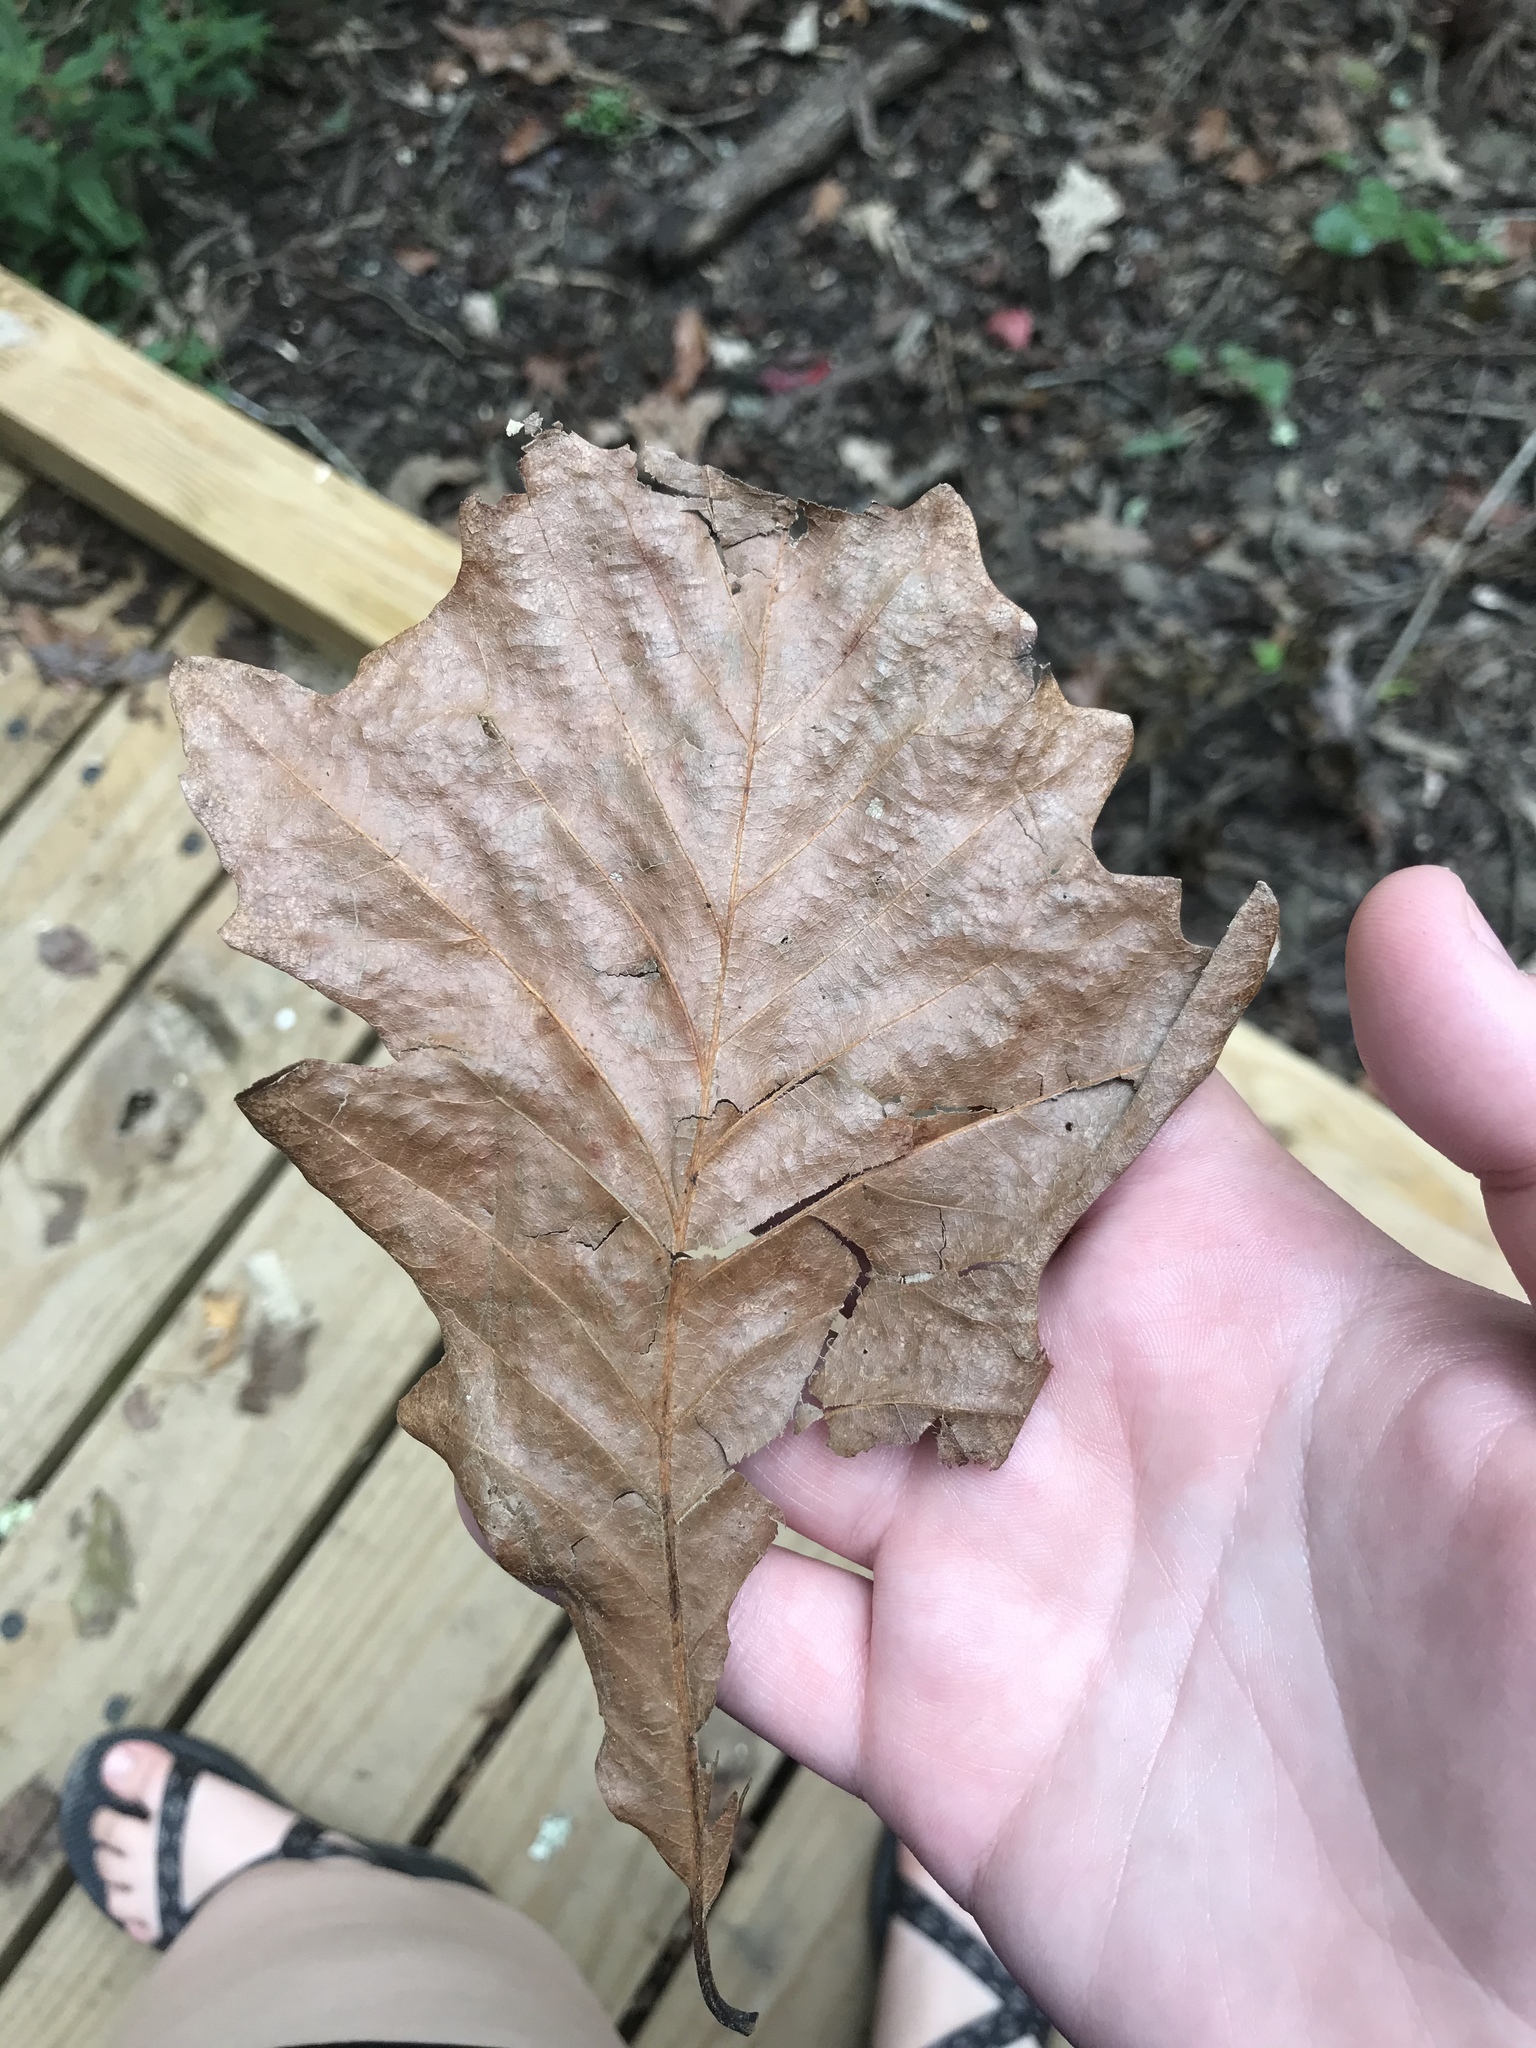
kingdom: Plantae
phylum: Tracheophyta
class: Magnoliopsida
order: Fagales
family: Fagaceae
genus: Quercus
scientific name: Quercus bicolor
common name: Swamp white oak
